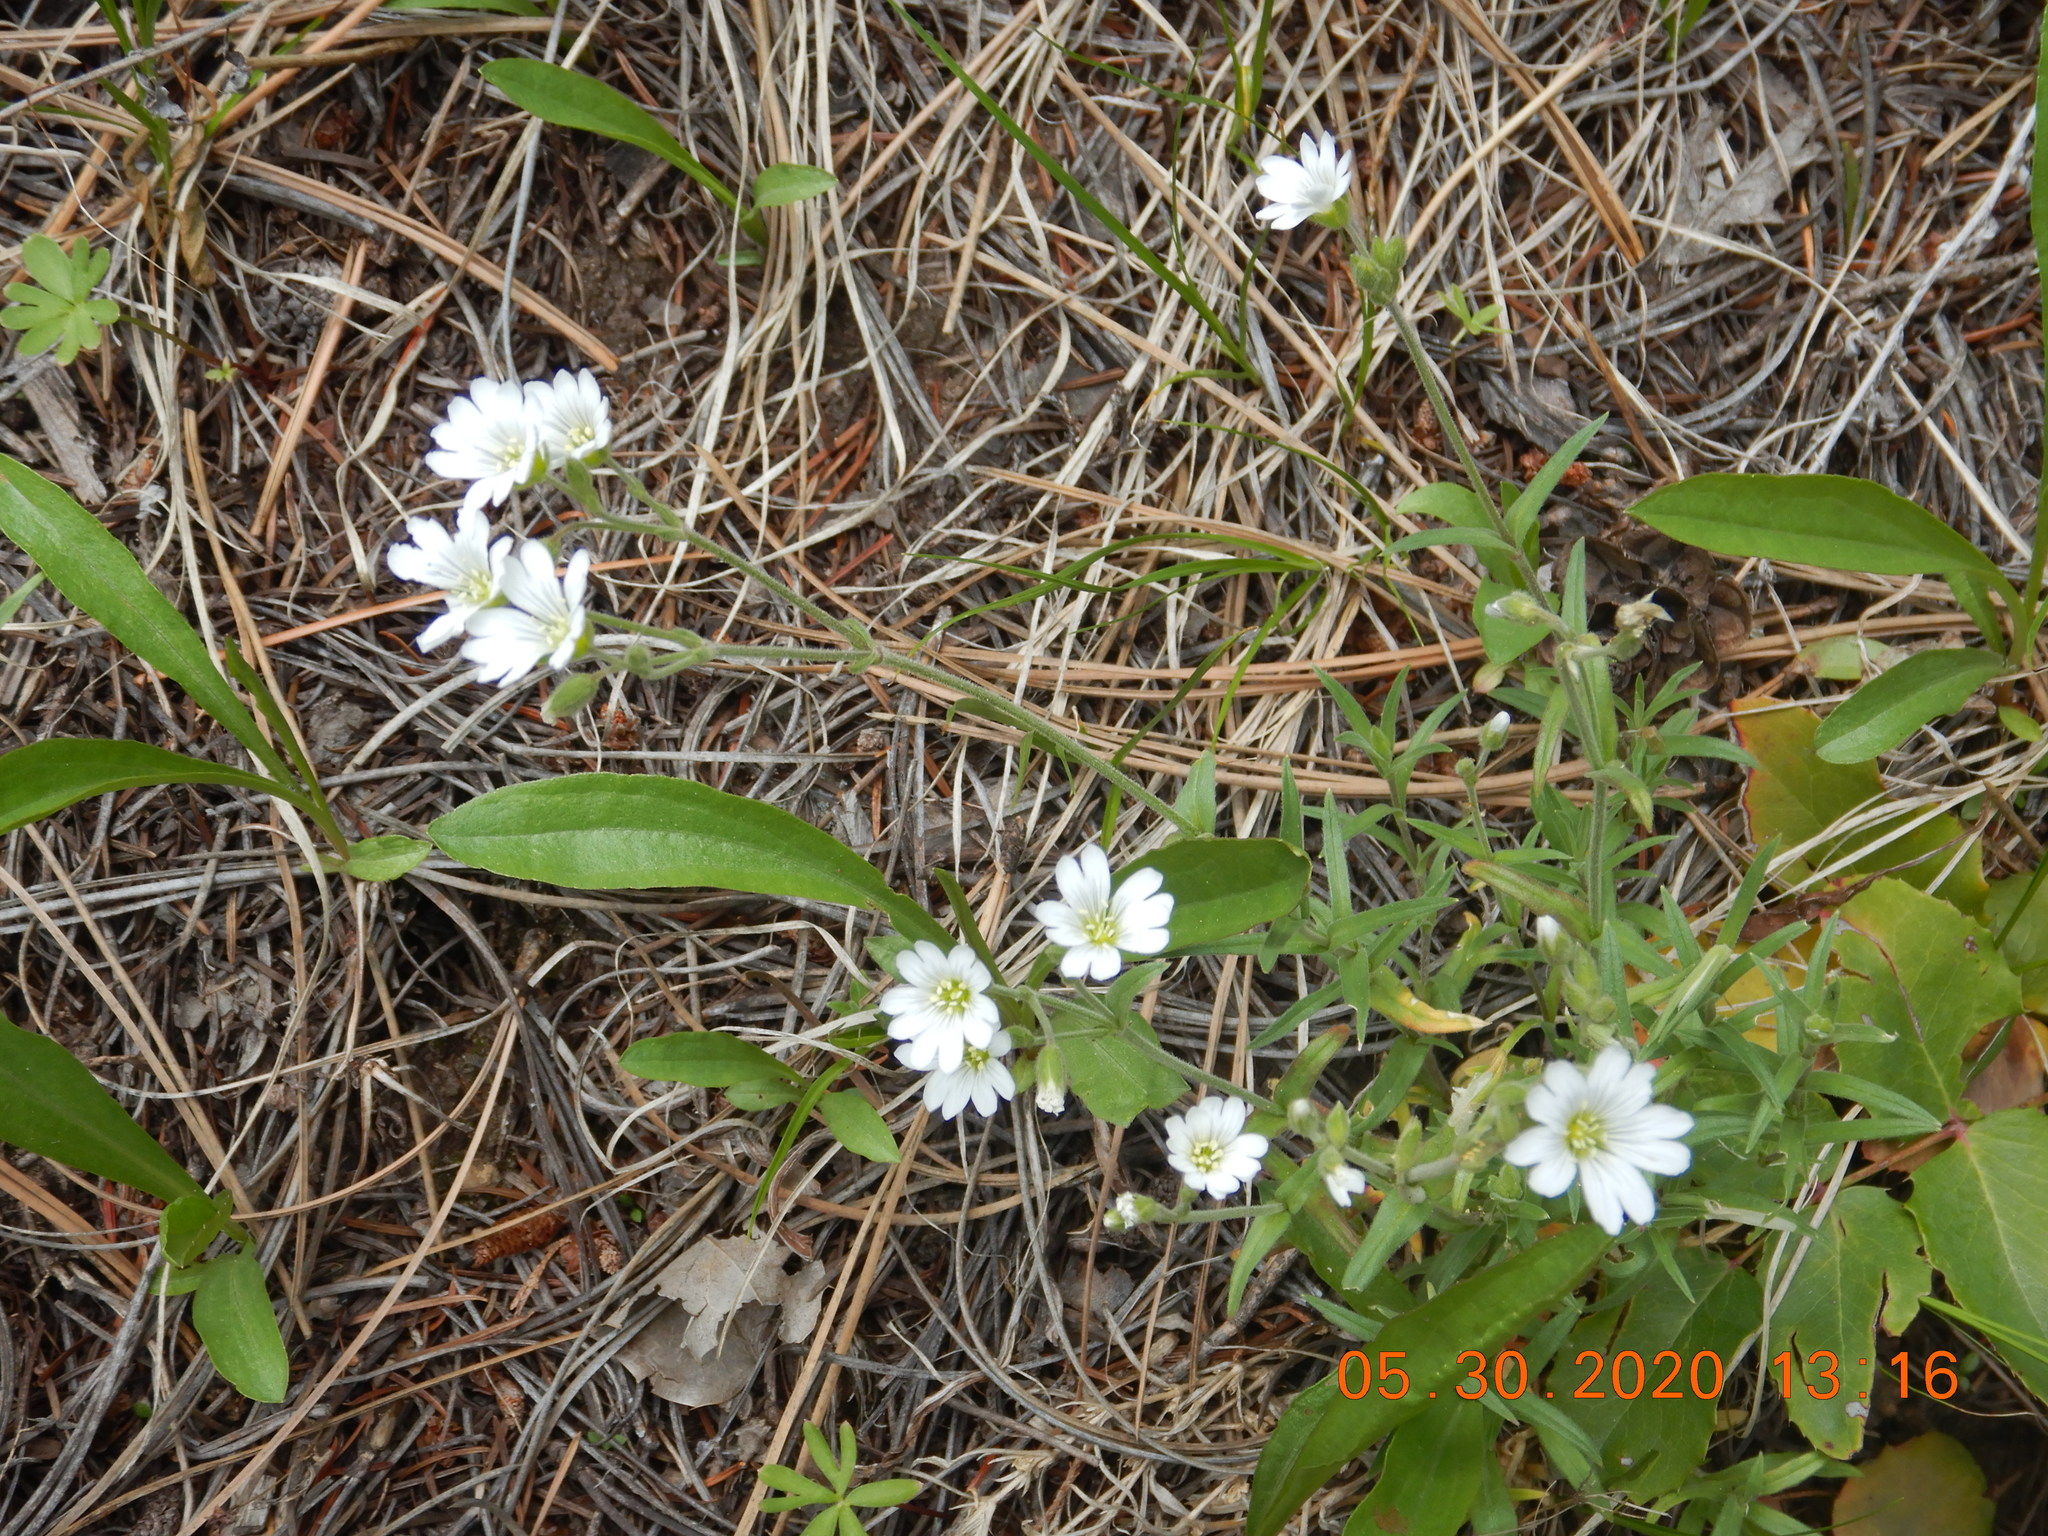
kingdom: Plantae
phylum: Tracheophyta
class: Magnoliopsida
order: Caryophyllales
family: Caryophyllaceae
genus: Cerastium
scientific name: Cerastium arvense
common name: Field mouse-ear
